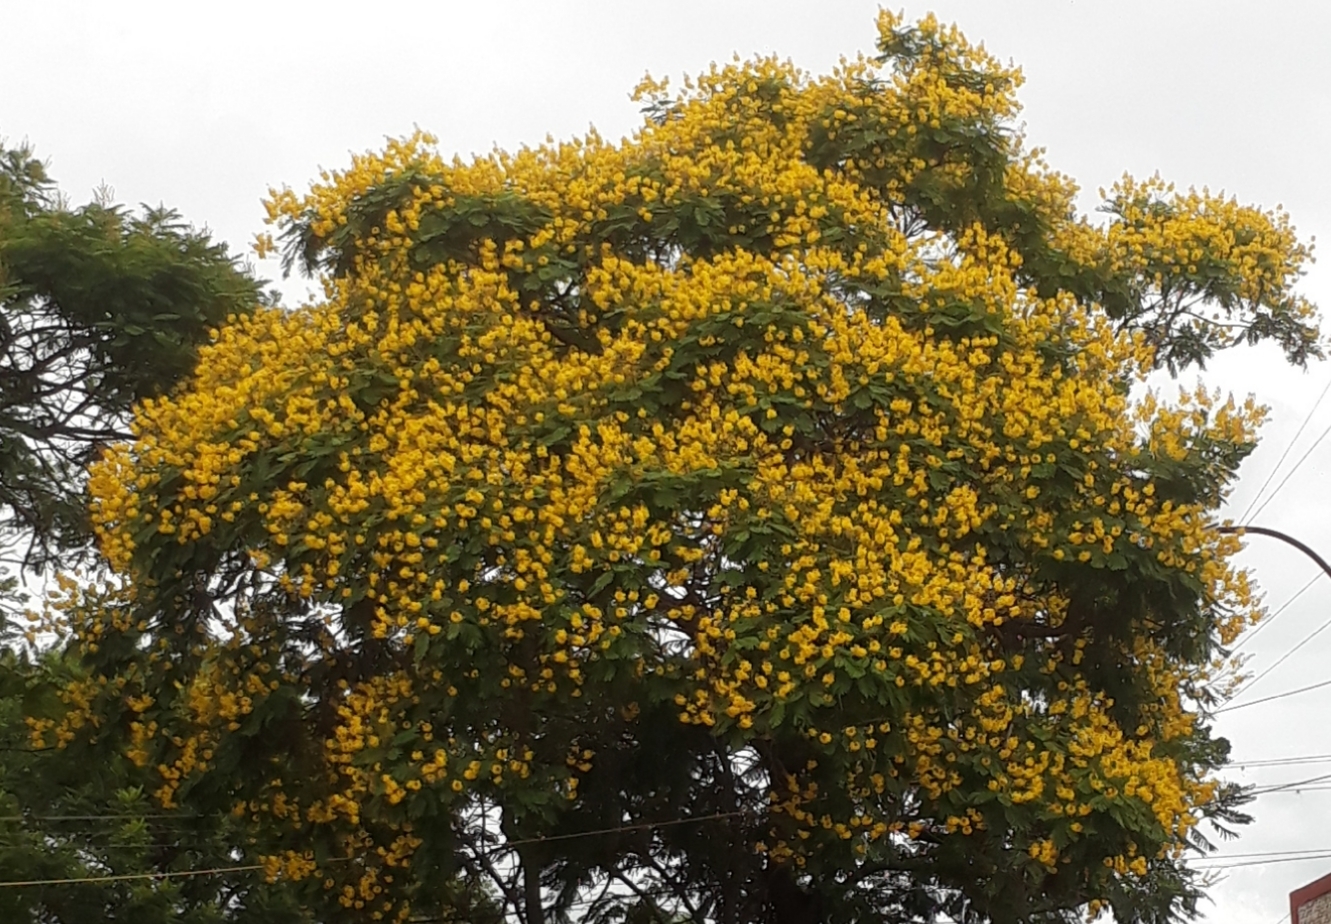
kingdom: Plantae
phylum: Tracheophyta
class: Magnoliopsida
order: Fabales
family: Fabaceae
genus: Peltophorum
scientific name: Peltophorum dubium
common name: Horsebush
